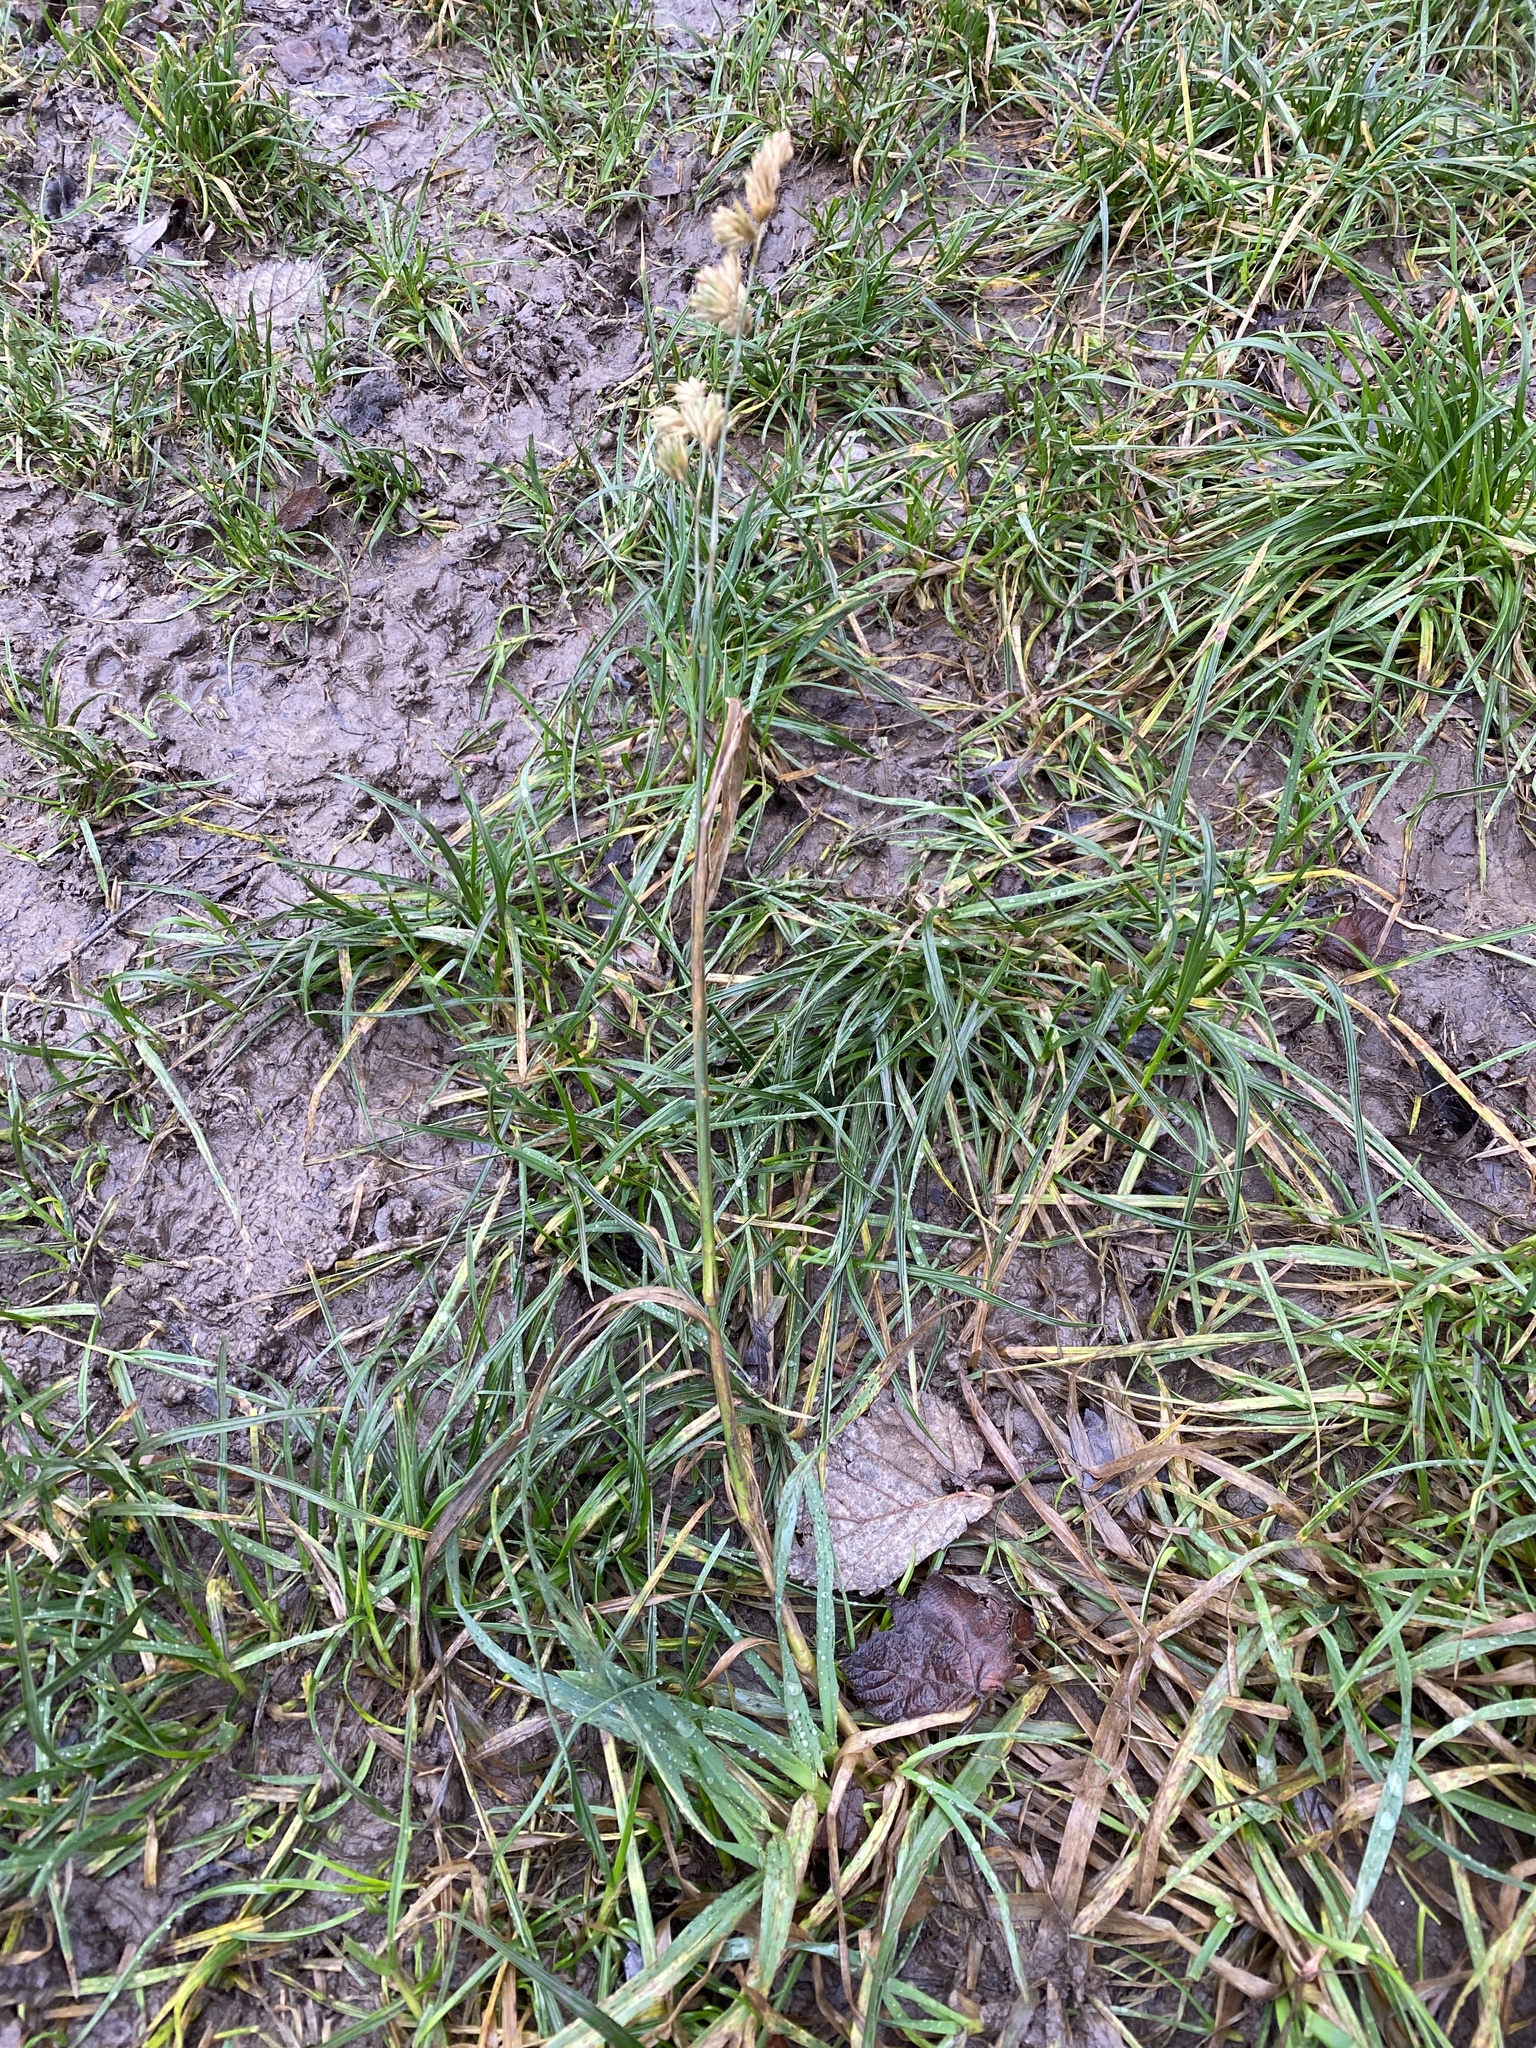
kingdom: Plantae
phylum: Tracheophyta
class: Liliopsida
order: Poales
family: Poaceae
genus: Dactylis
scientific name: Dactylis glomerata
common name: Orchardgrass
